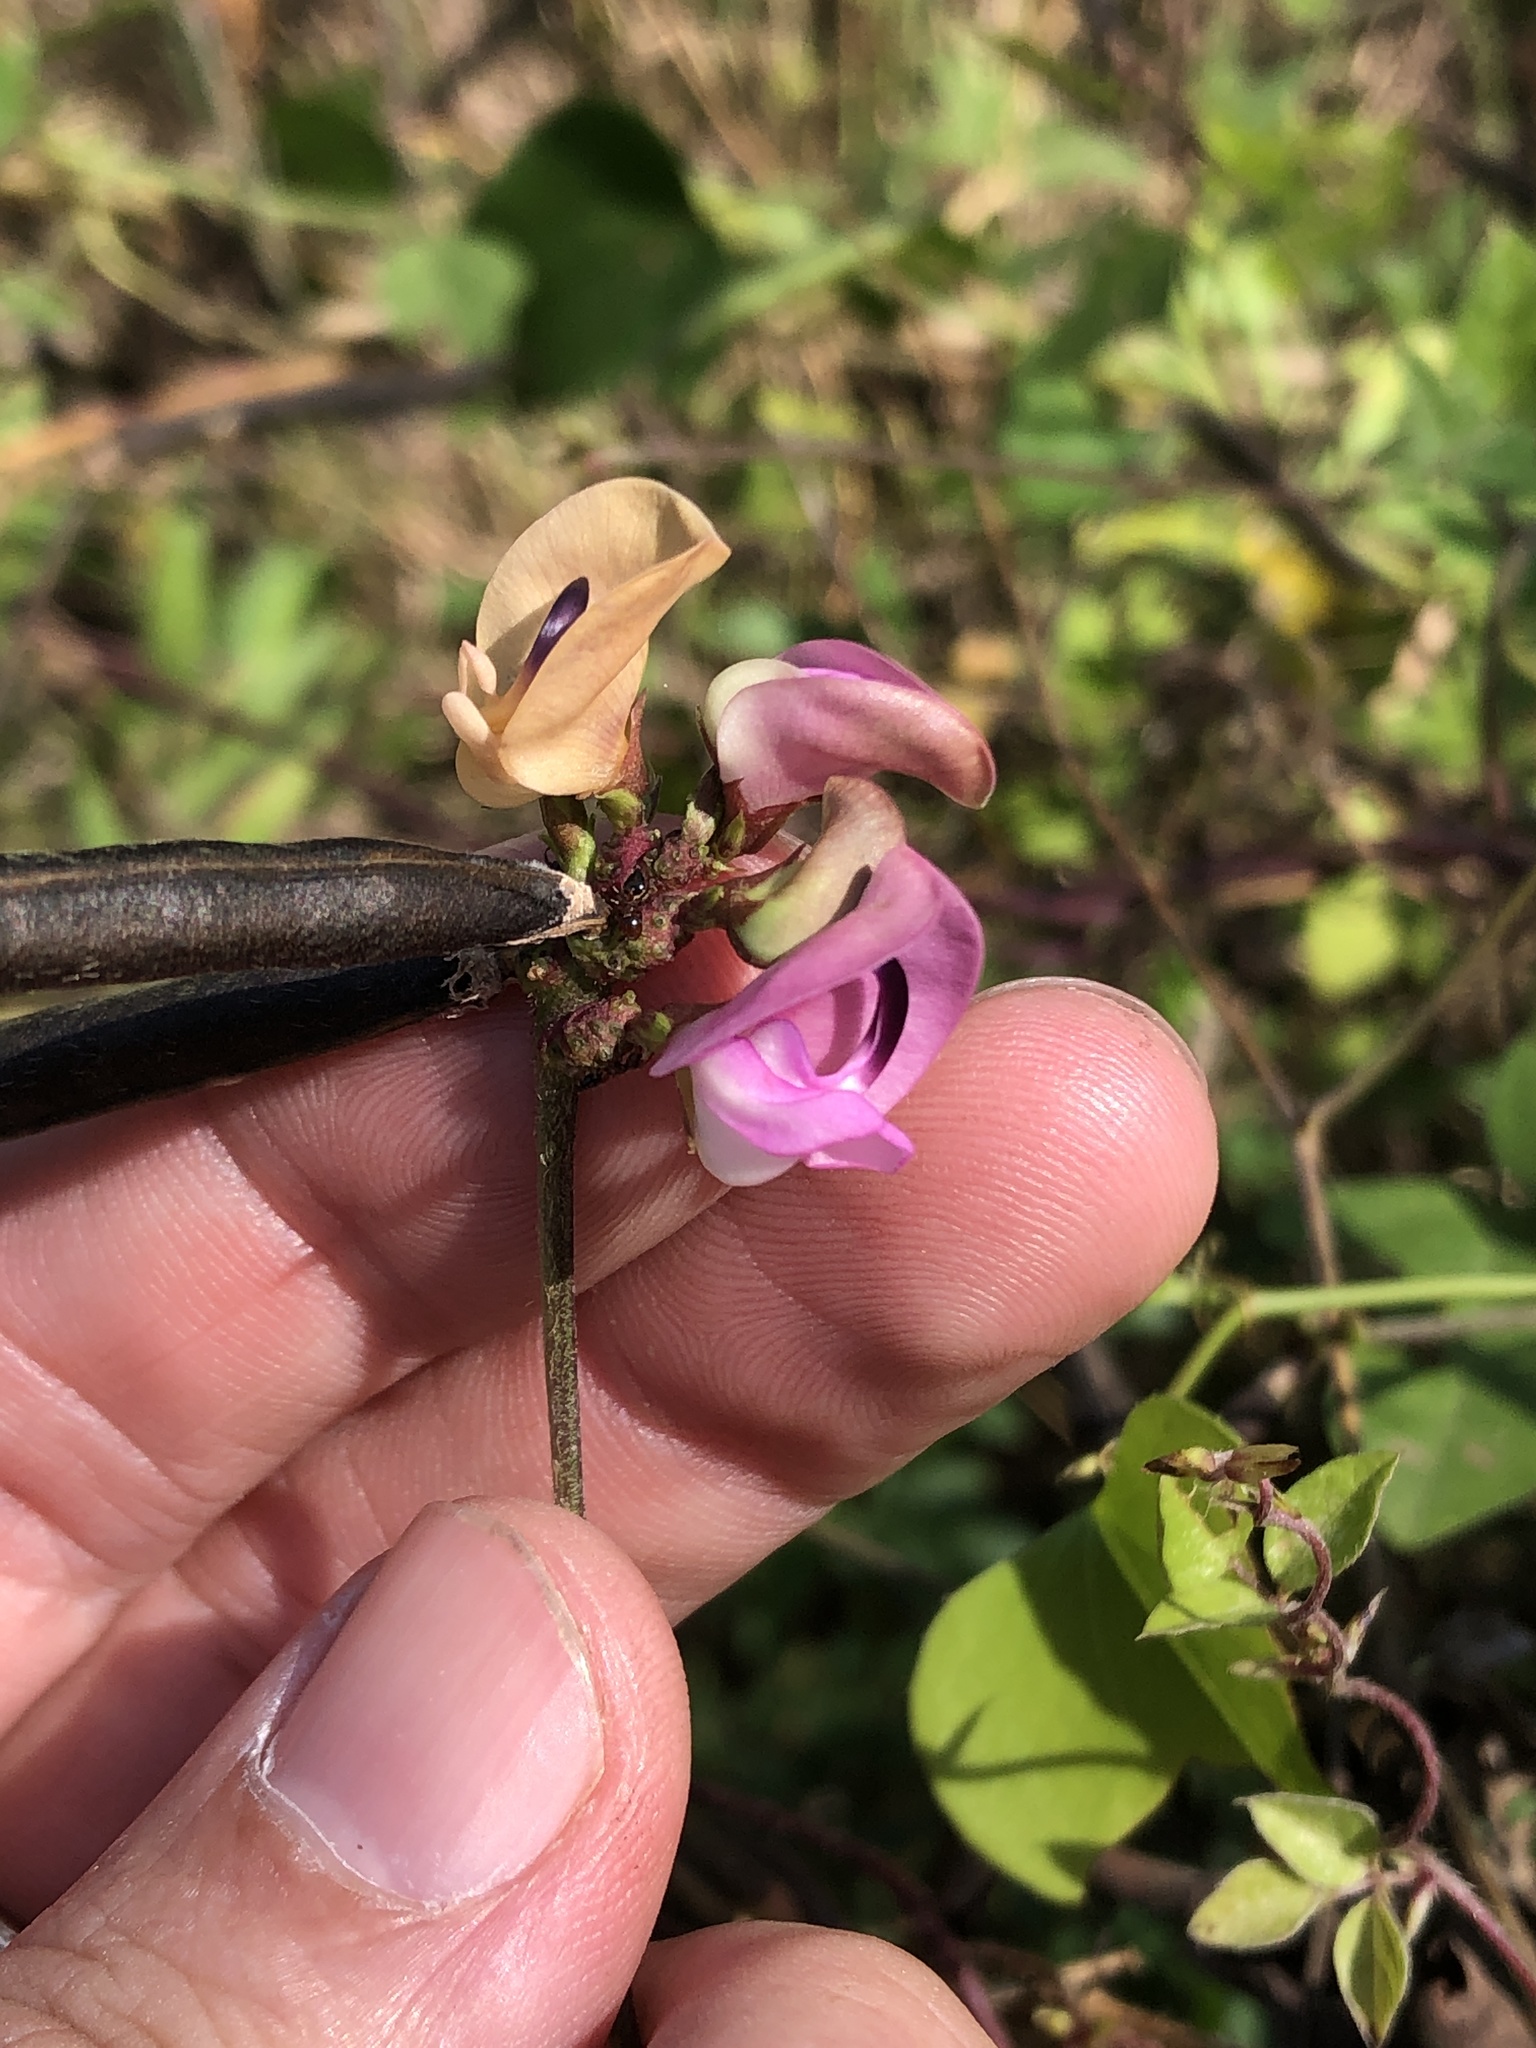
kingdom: Plantae
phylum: Tracheophyta
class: Magnoliopsida
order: Fabales
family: Fabaceae
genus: Strophostyles
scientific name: Strophostyles helvola
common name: Trailing wild bean
